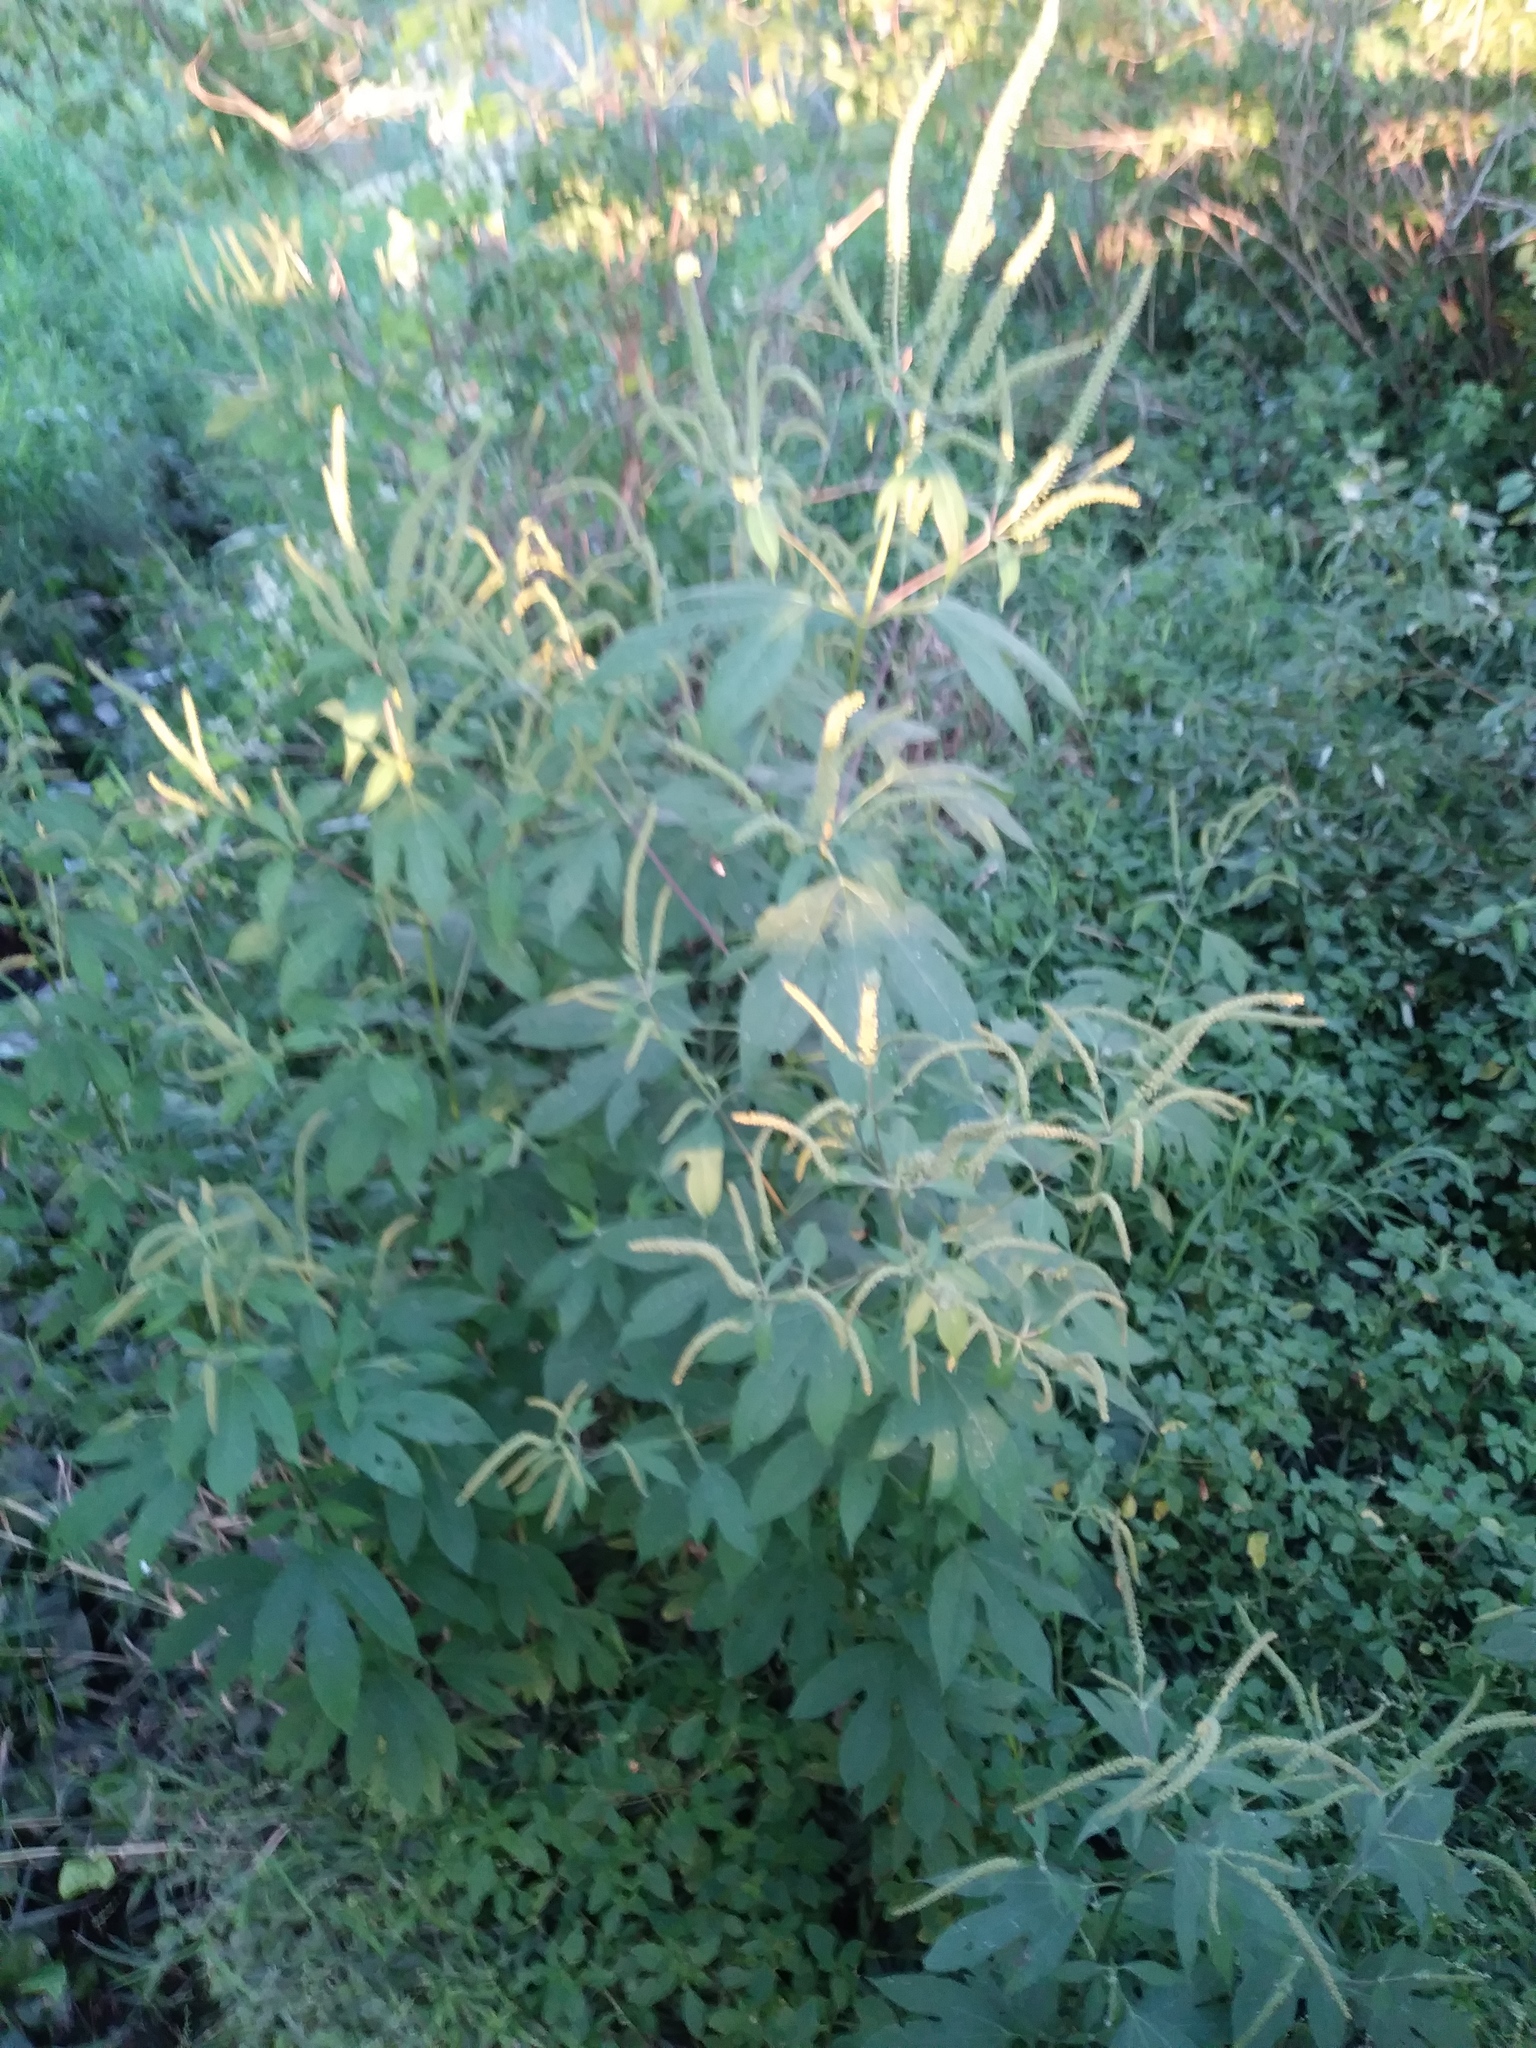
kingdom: Plantae
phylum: Tracheophyta
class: Magnoliopsida
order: Asterales
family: Asteraceae
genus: Ambrosia
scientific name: Ambrosia trifida
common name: Giant ragweed
